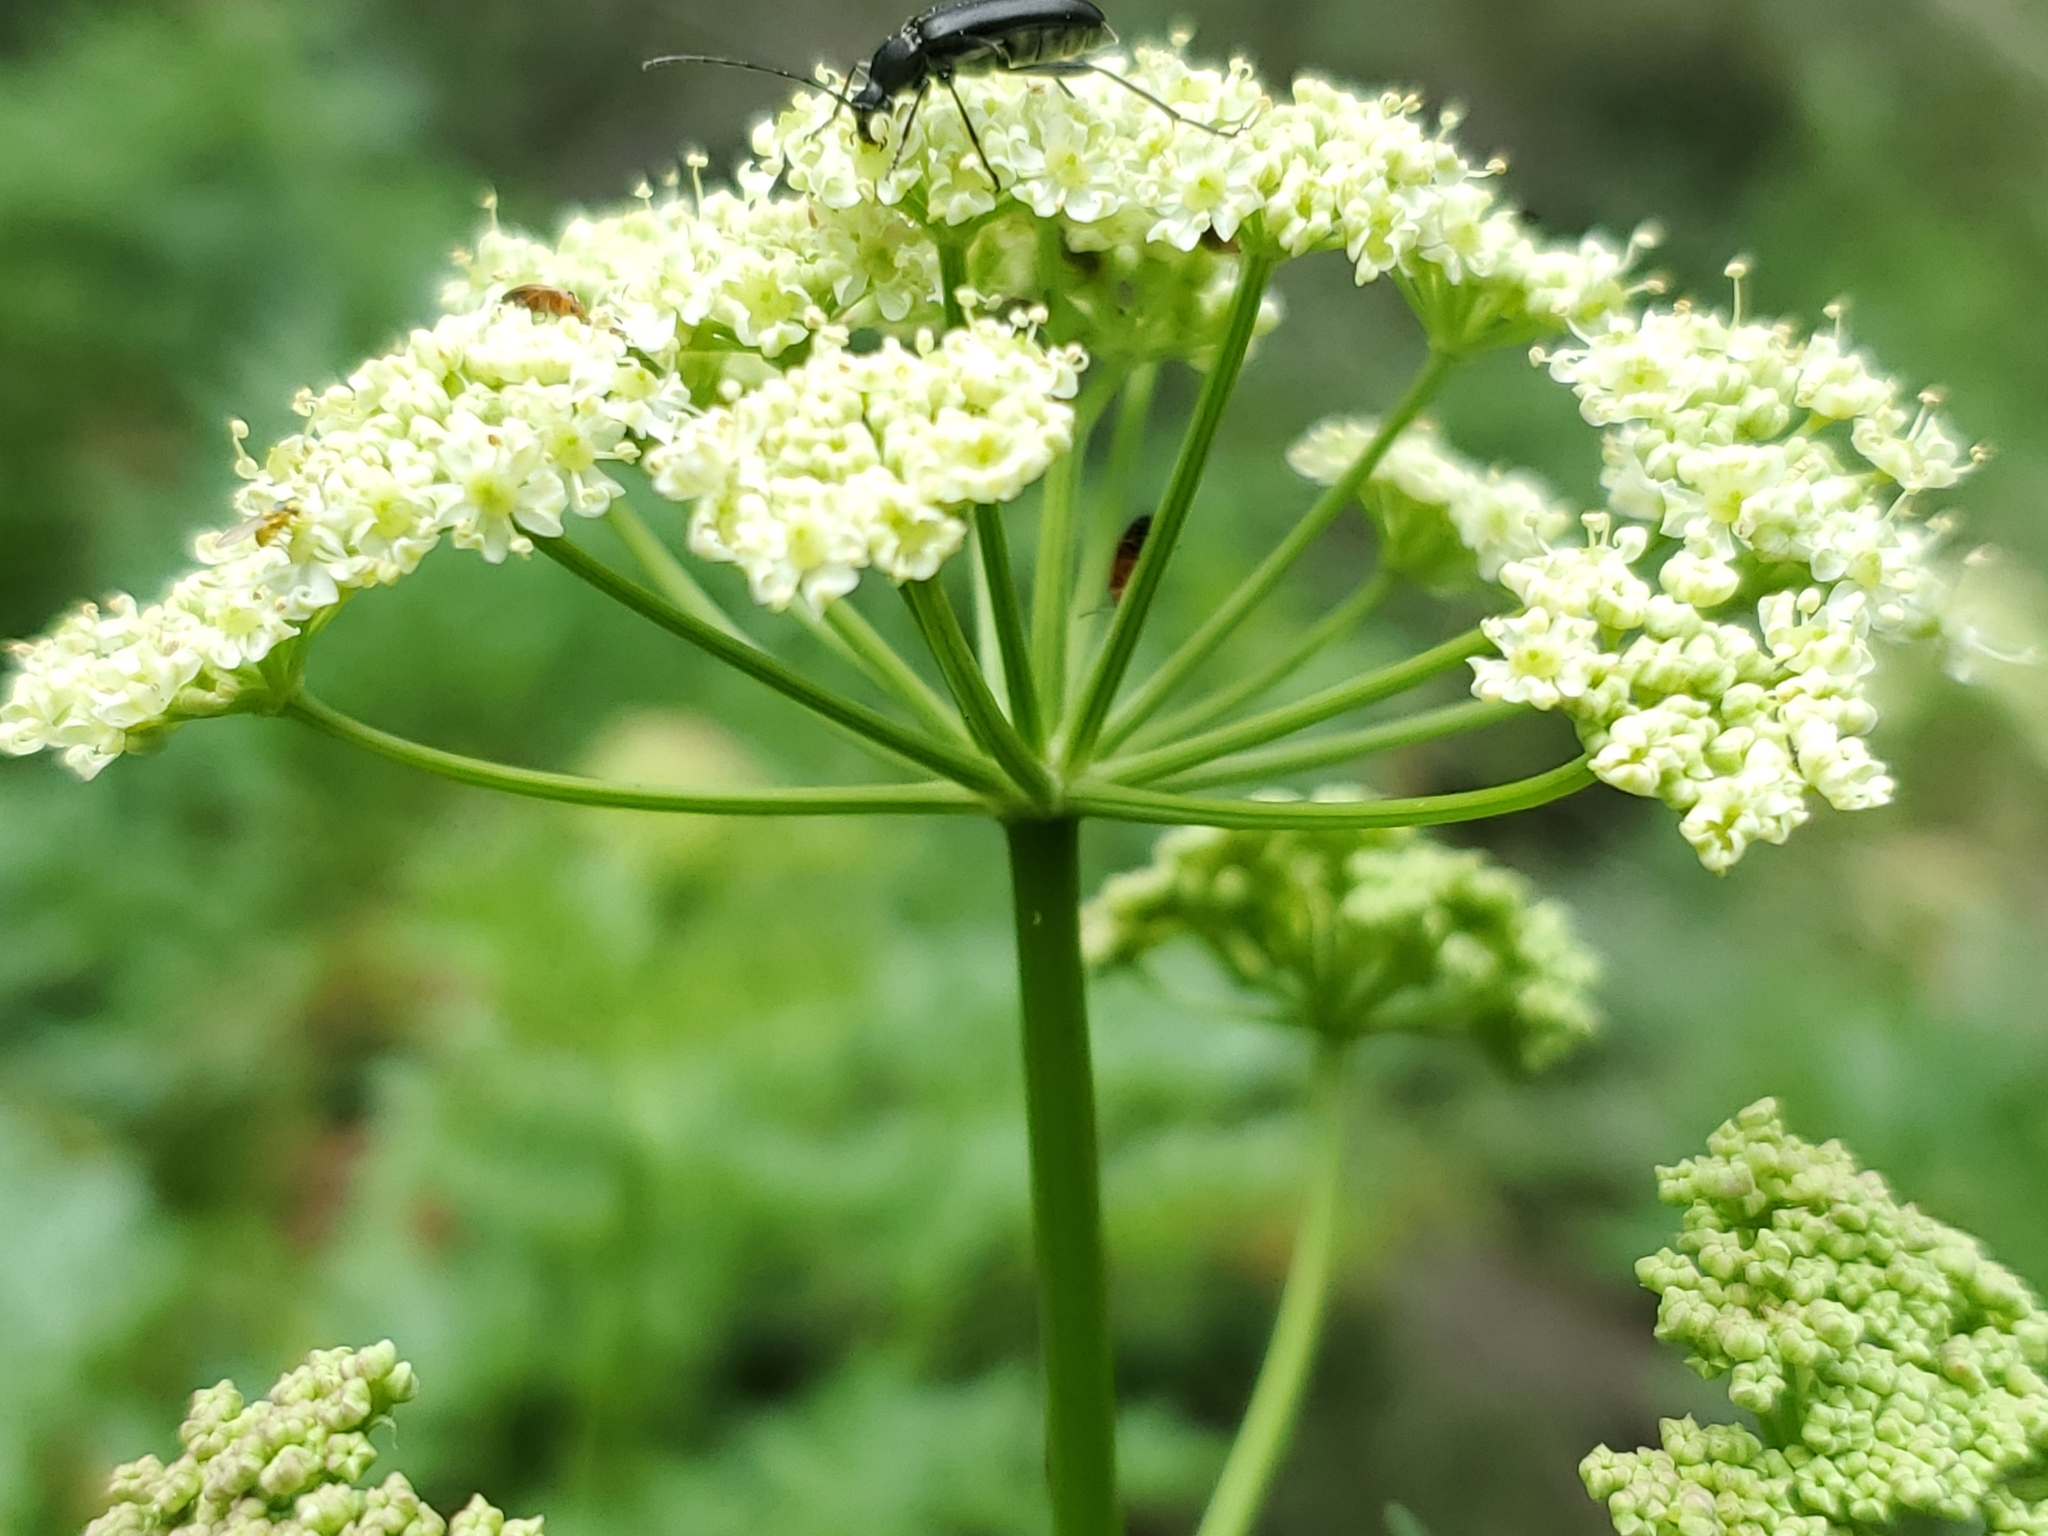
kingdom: Plantae
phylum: Tracheophyta
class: Magnoliopsida
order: Apiales
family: Apiaceae
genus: Ligusticum
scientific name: Ligusticum porteri
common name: Mountain lovage
